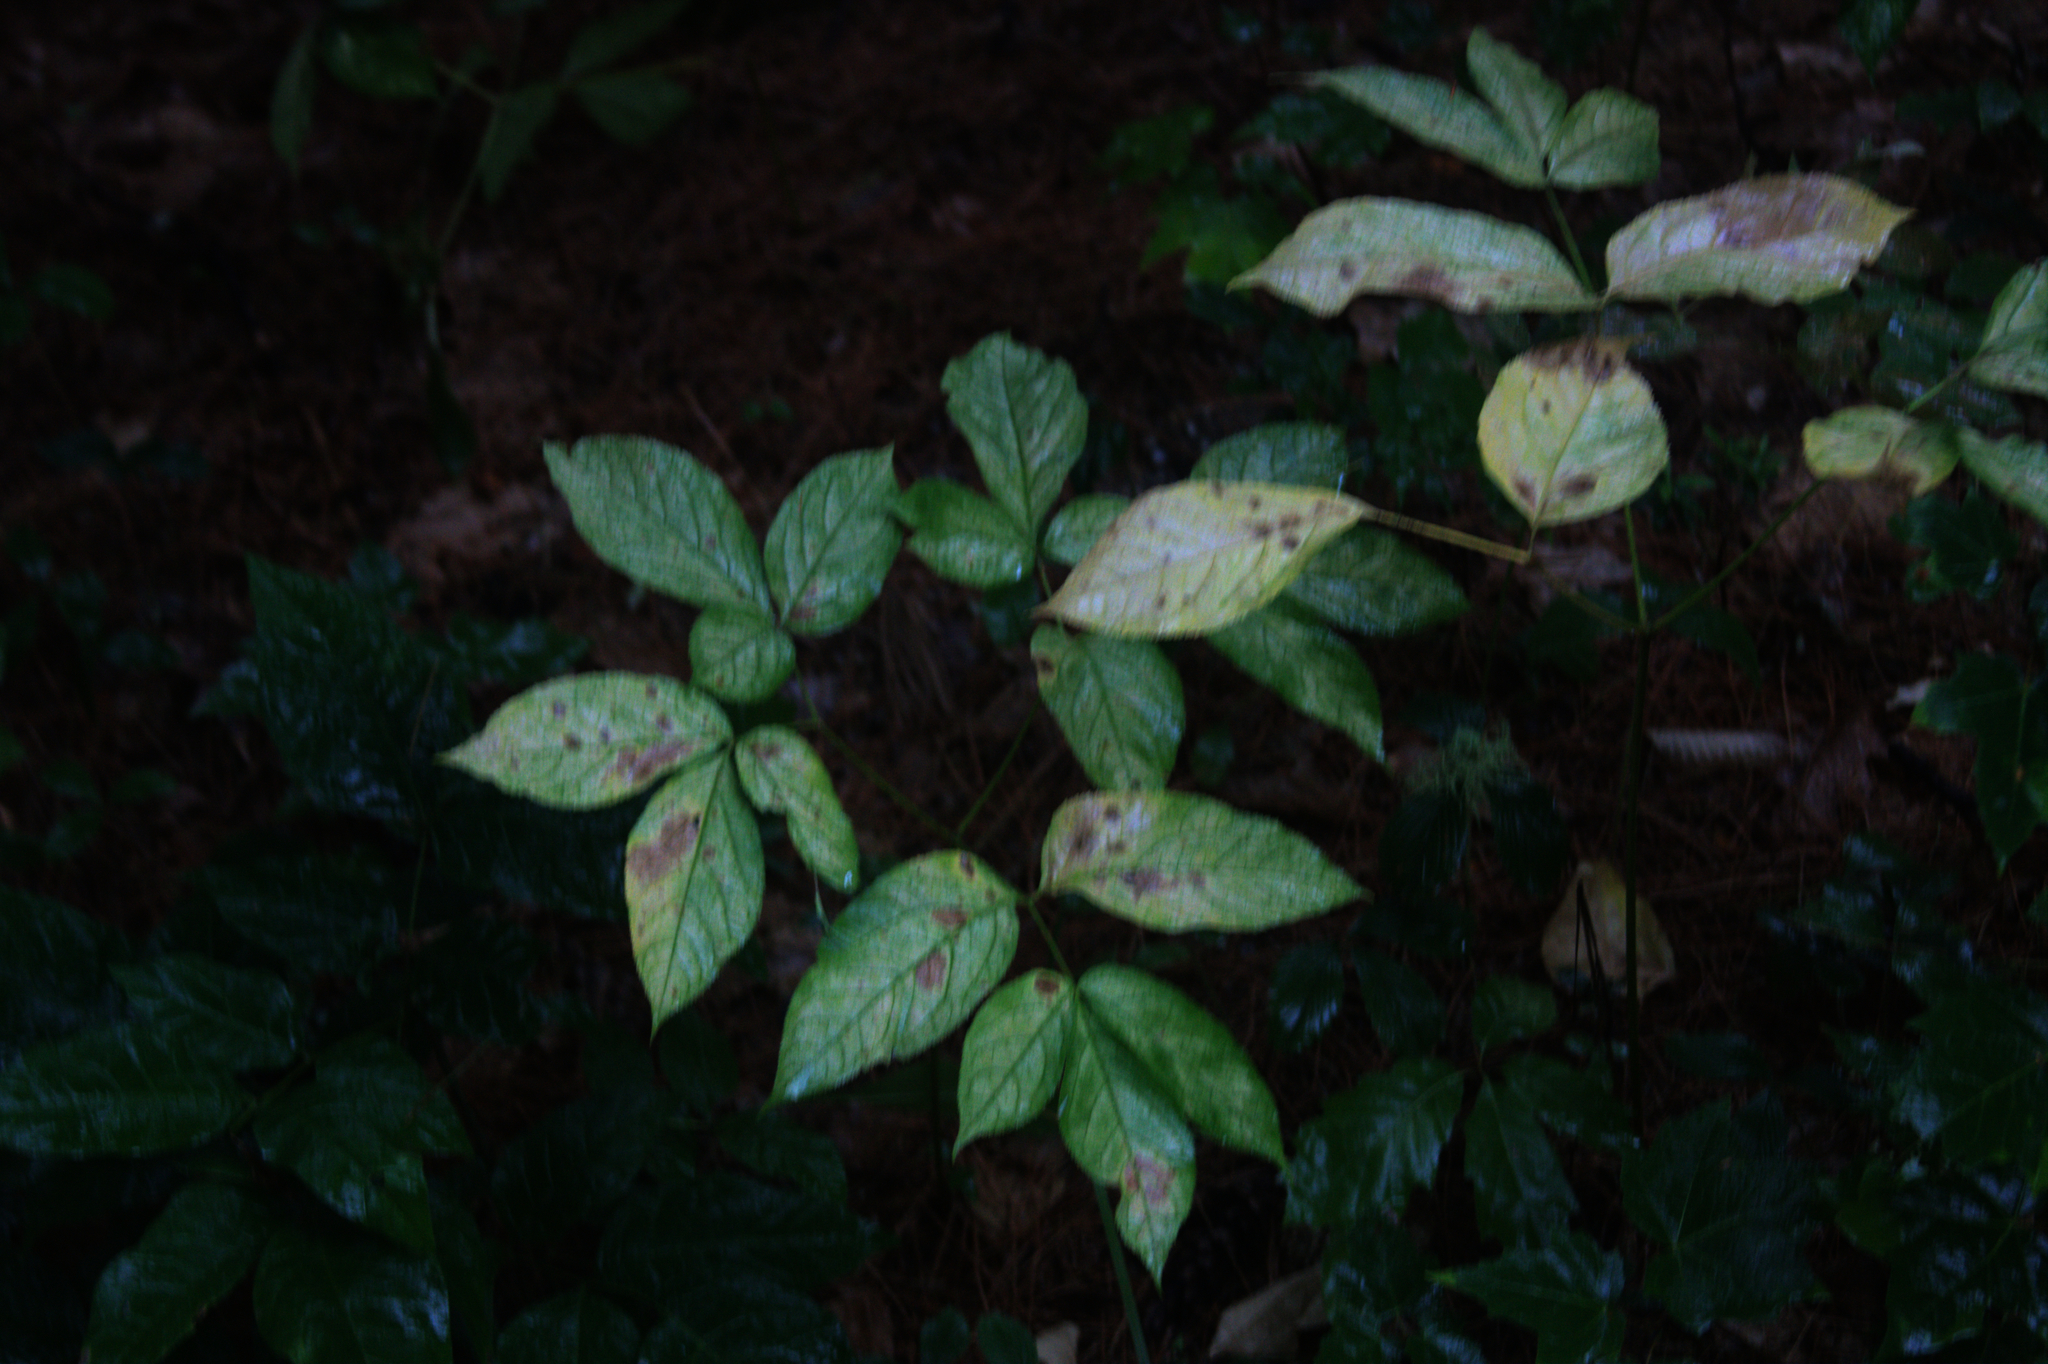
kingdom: Plantae
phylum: Tracheophyta
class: Magnoliopsida
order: Apiales
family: Araliaceae
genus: Aralia
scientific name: Aralia nudicaulis
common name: Wild sarsaparilla
